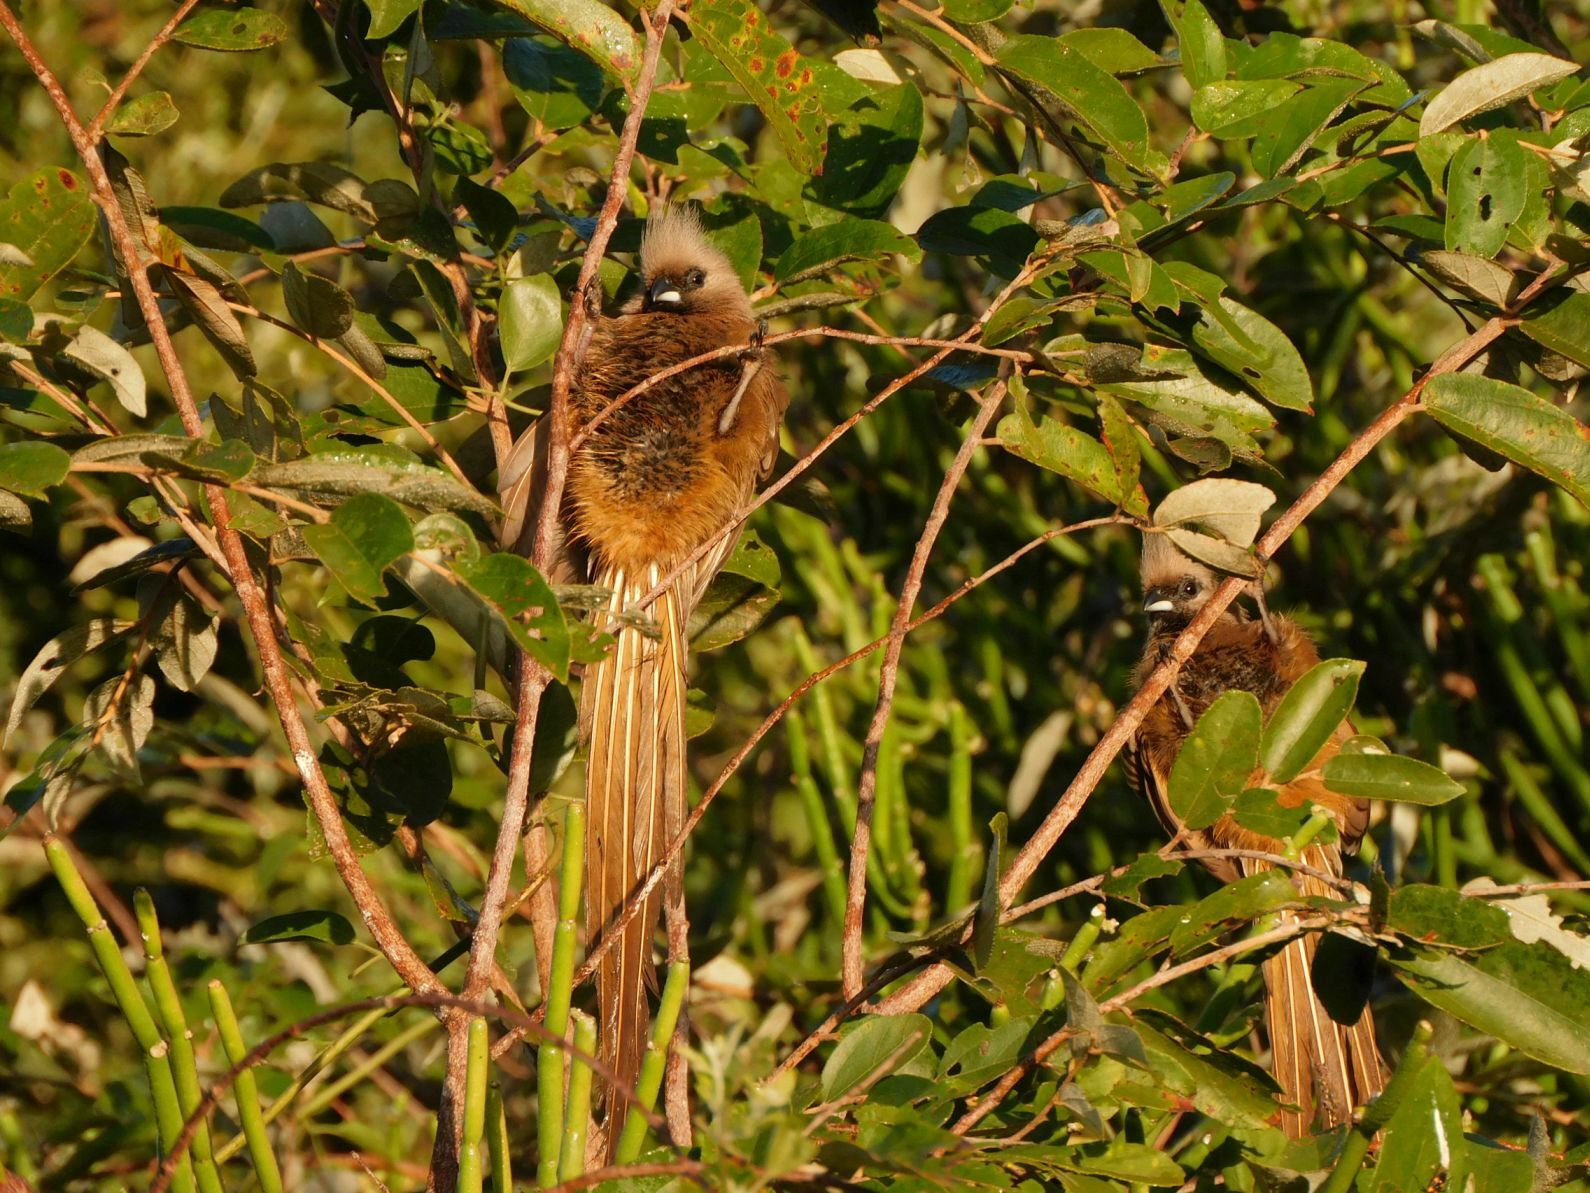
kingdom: Animalia
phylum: Chordata
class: Aves
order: Coliiformes
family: Coliidae
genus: Colius
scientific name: Colius striatus
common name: Speckled mousebird
